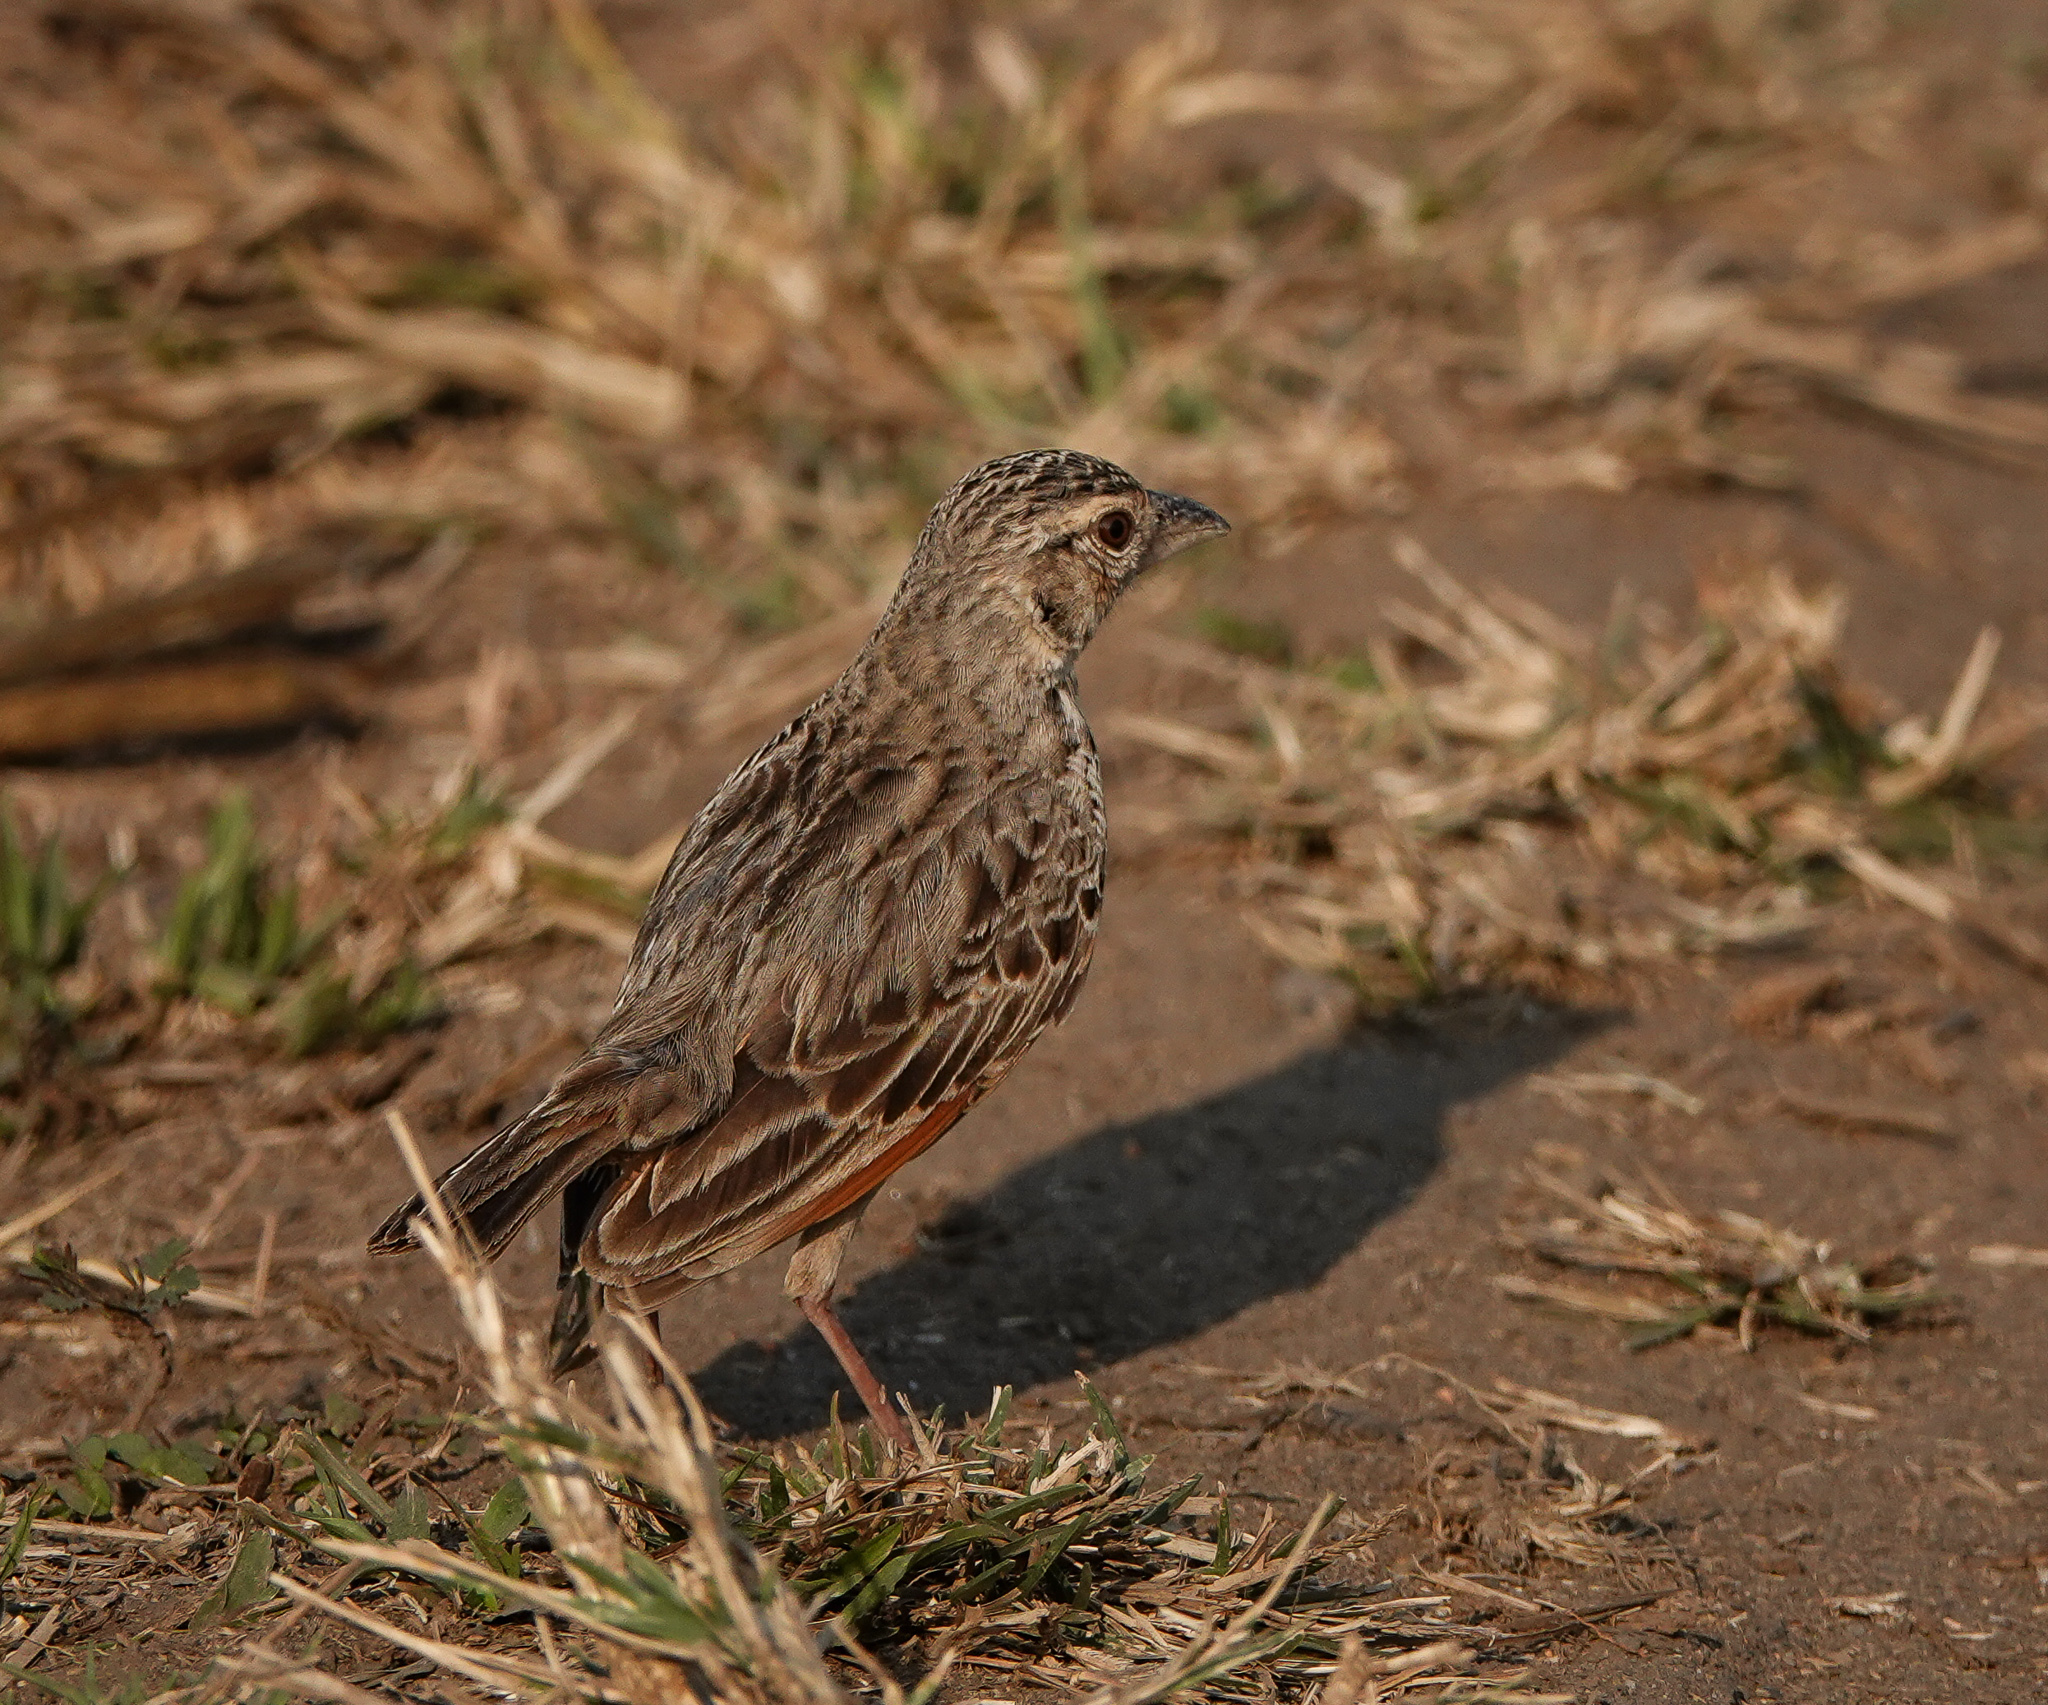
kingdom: Animalia
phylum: Chordata
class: Aves
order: Passeriformes
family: Alaudidae
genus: Mirafra
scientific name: Mirafra assamica
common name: Bengal bush lark
